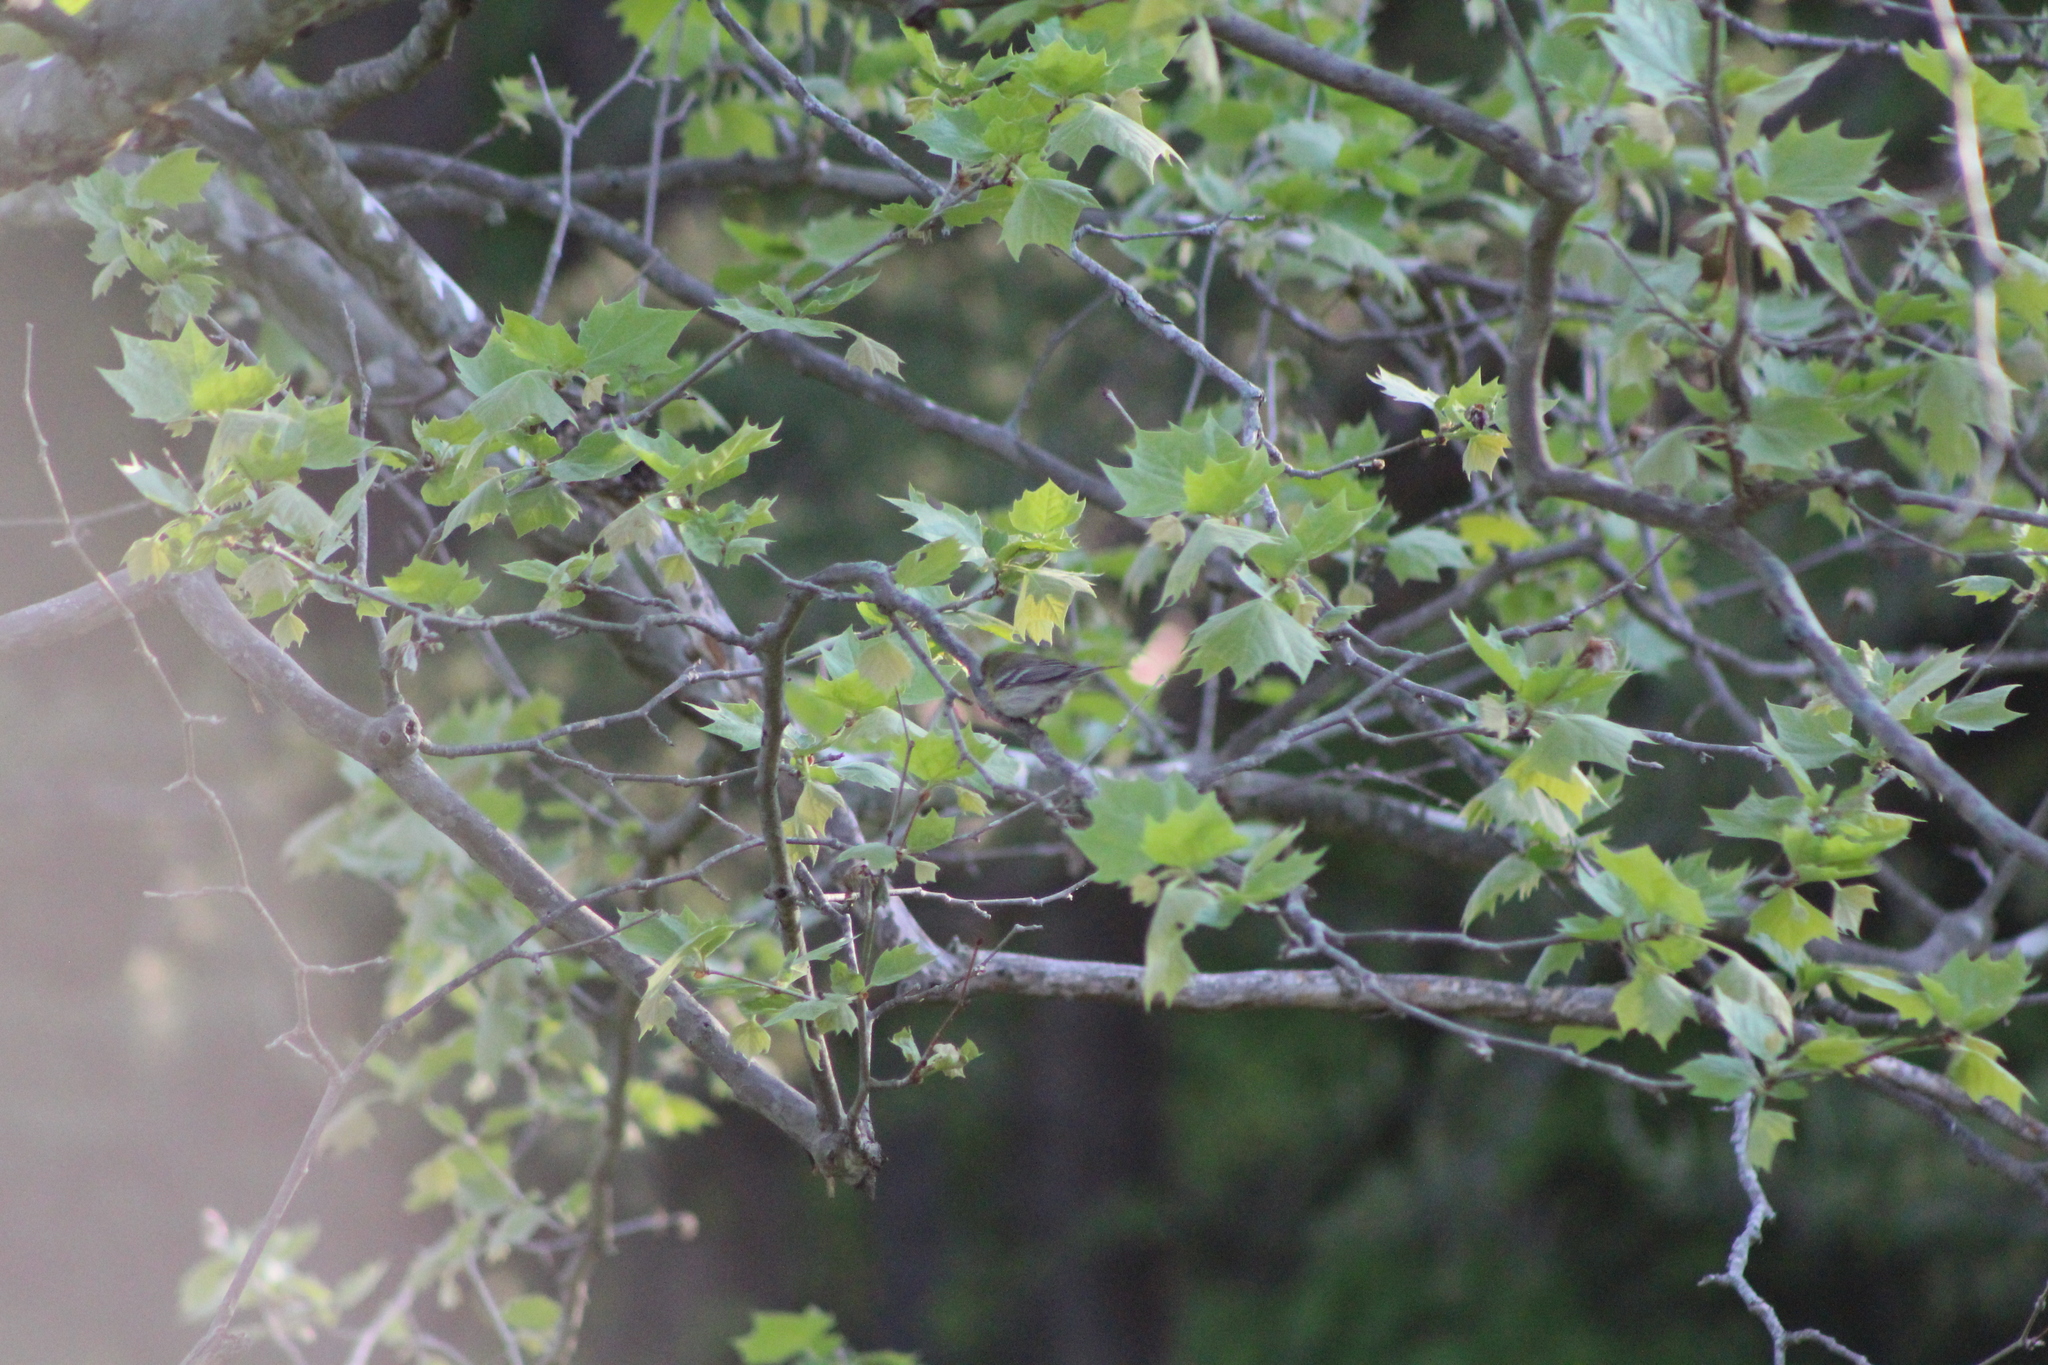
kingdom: Animalia
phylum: Chordata
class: Aves
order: Passeriformes
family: Parulidae
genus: Setophaga
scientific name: Setophaga pinus
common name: Pine warbler
